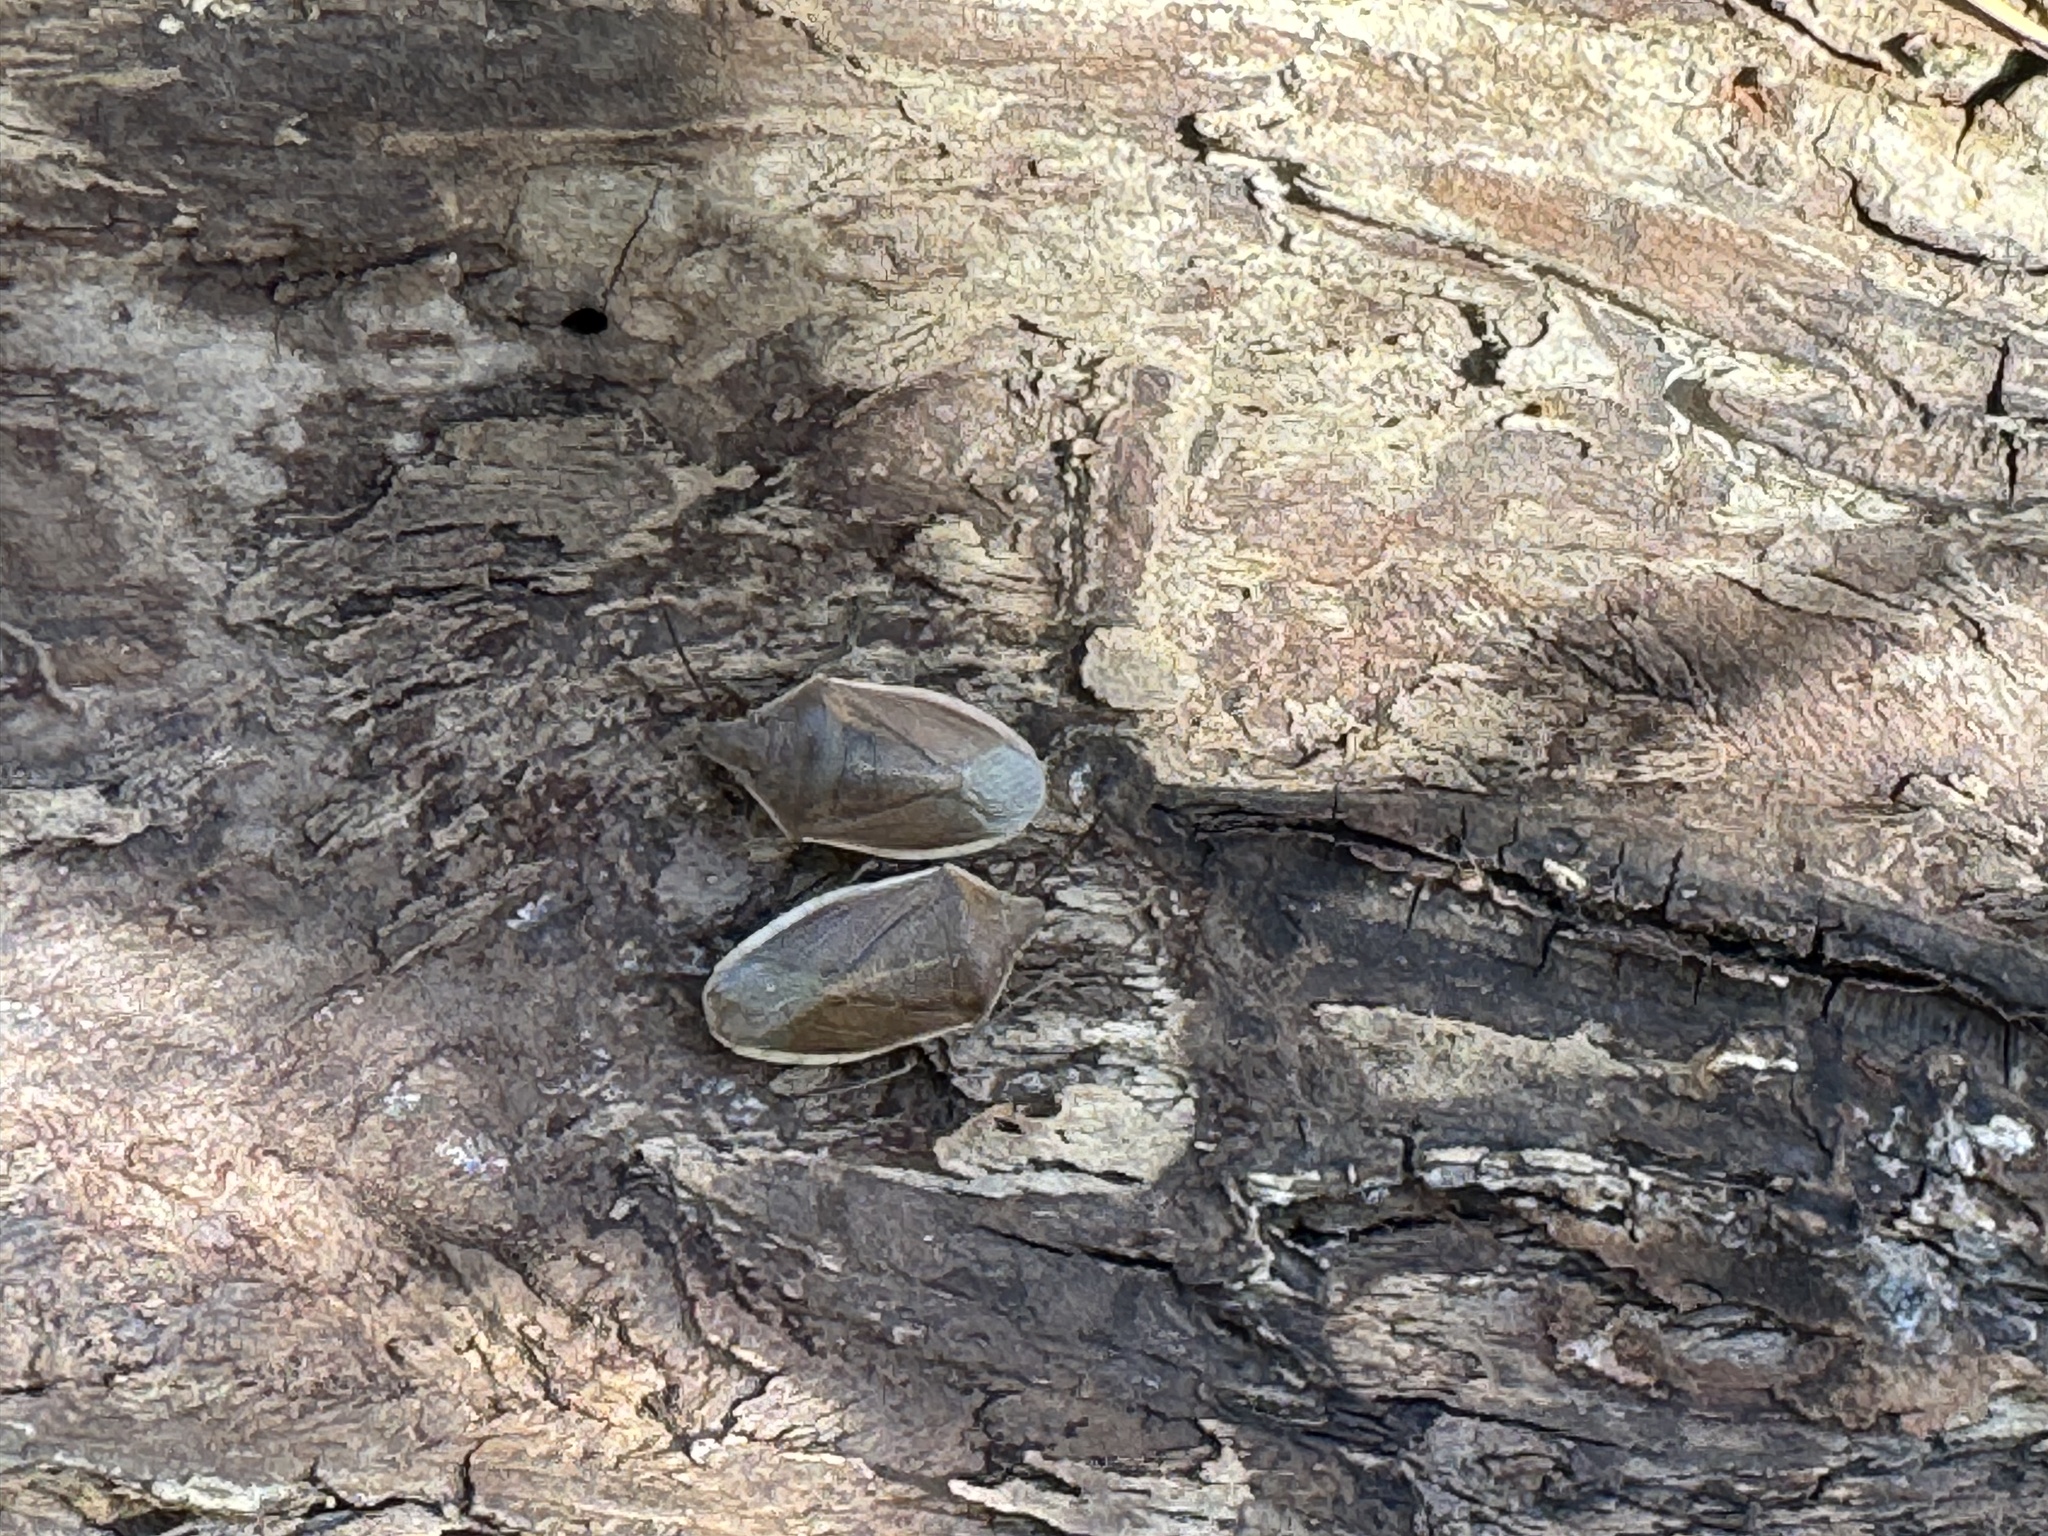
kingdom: Animalia
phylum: Arthropoda
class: Insecta
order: Hemiptera
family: Pentatomidae
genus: Chlorochroa
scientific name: Chlorochroa senilis
